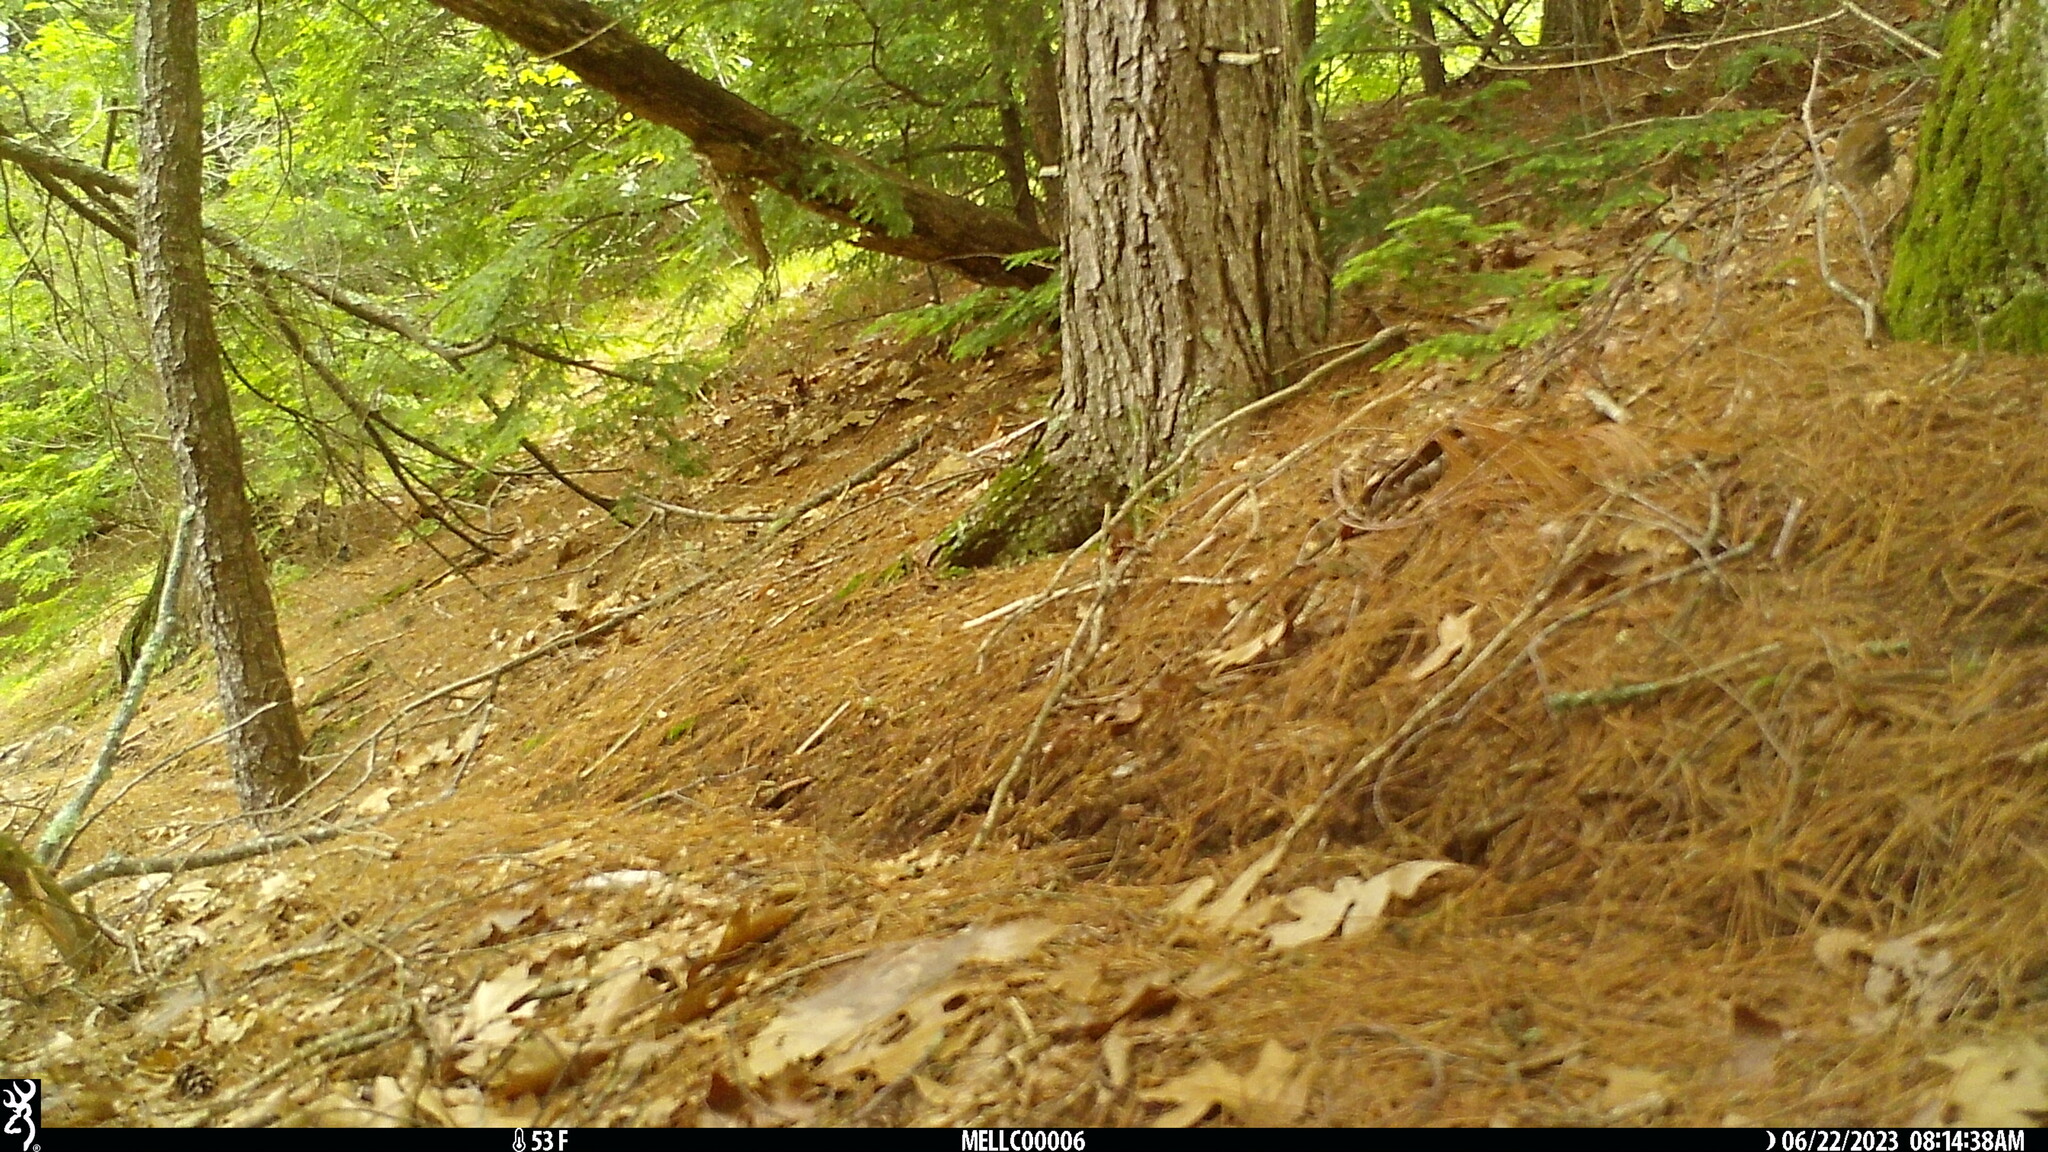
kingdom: Animalia
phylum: Chordata
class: Aves
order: Passeriformes
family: Turdidae
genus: Catharus
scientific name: Catharus fuscescens
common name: Veery
